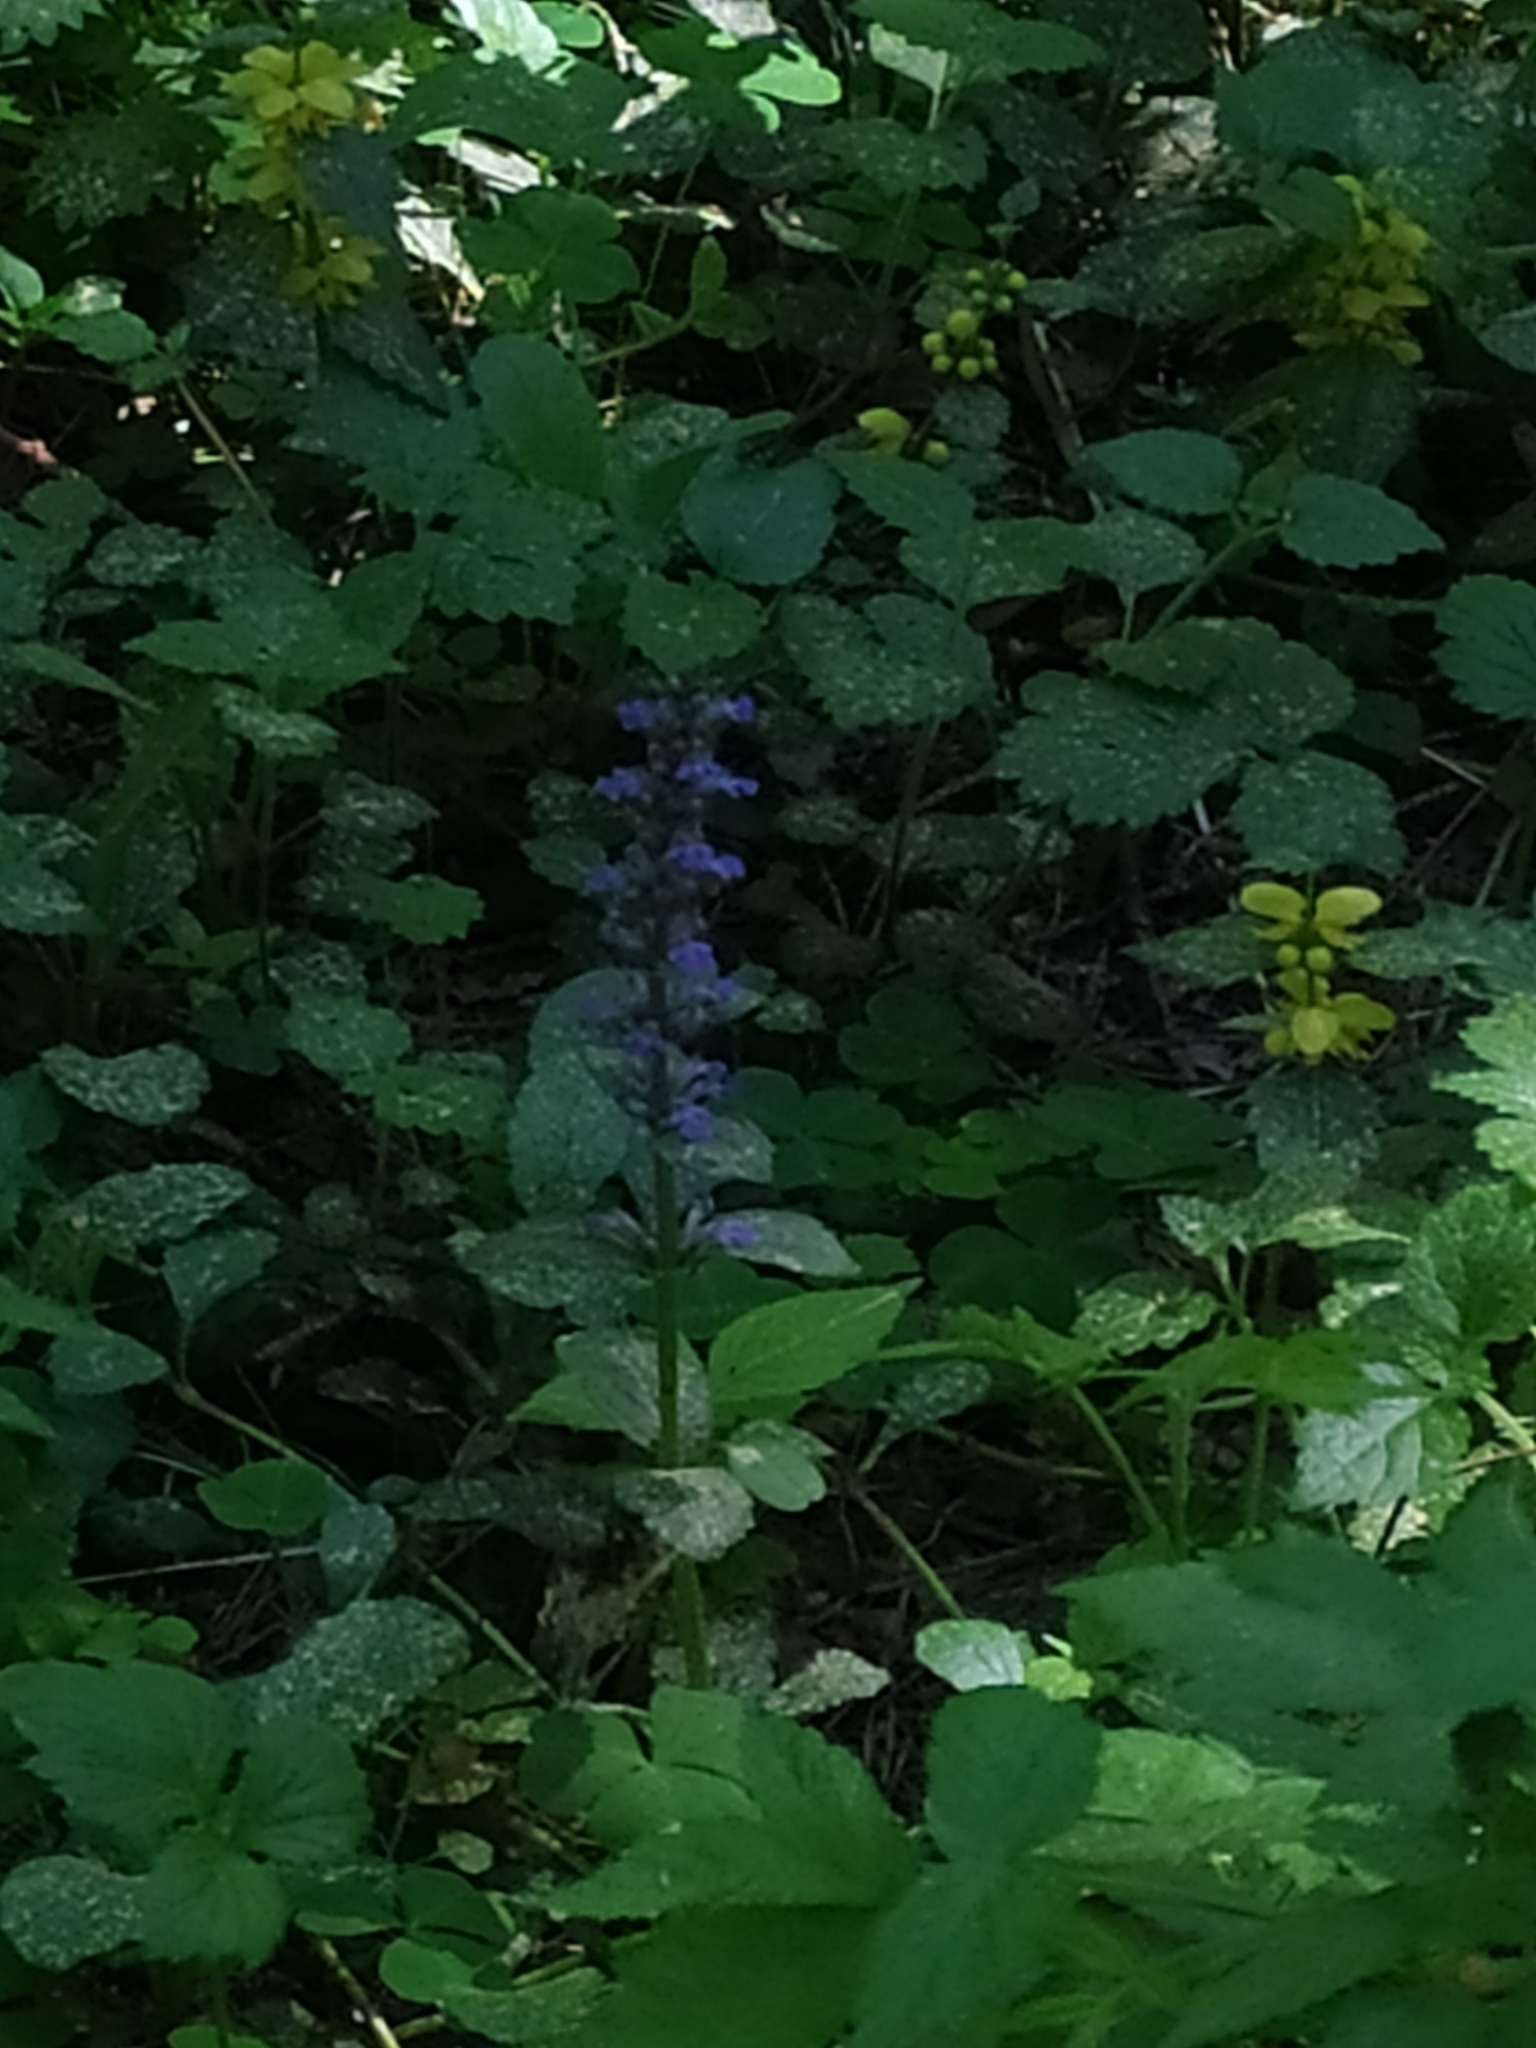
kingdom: Plantae
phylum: Tracheophyta
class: Magnoliopsida
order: Lamiales
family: Lamiaceae
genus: Ajuga
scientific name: Ajuga reptans
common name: Bugle
